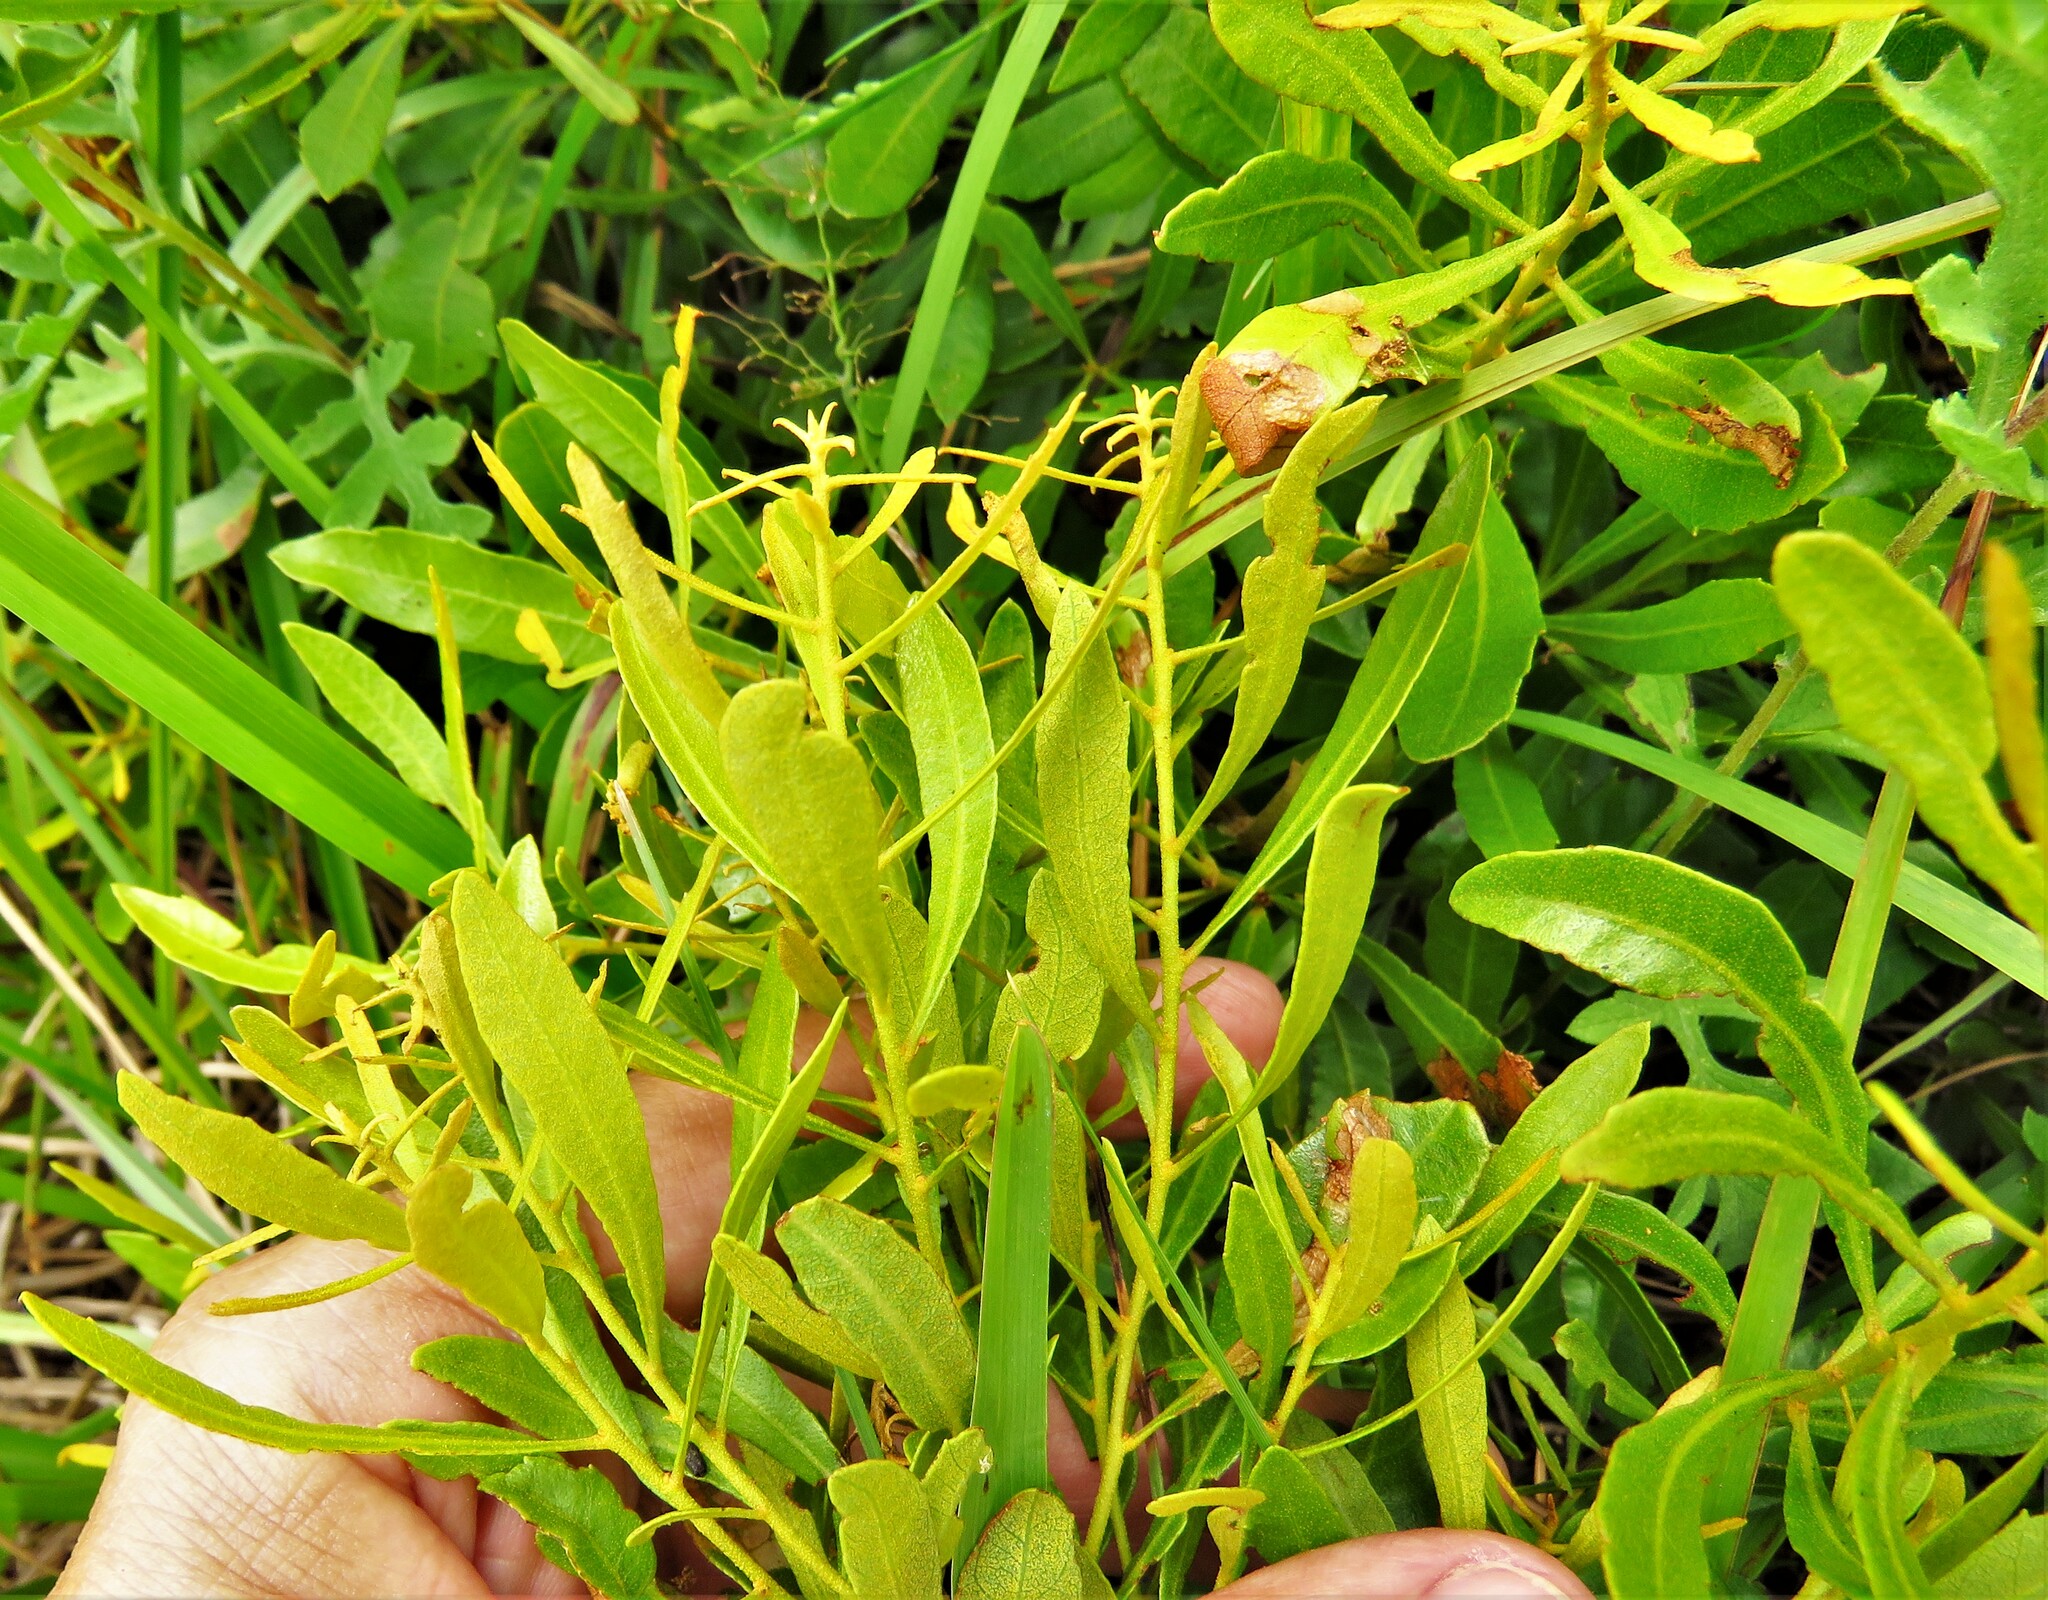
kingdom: Plantae
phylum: Tracheophyta
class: Magnoliopsida
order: Fagales
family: Myricaceae
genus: Morella
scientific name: Morella cerifera
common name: Wax myrtle
